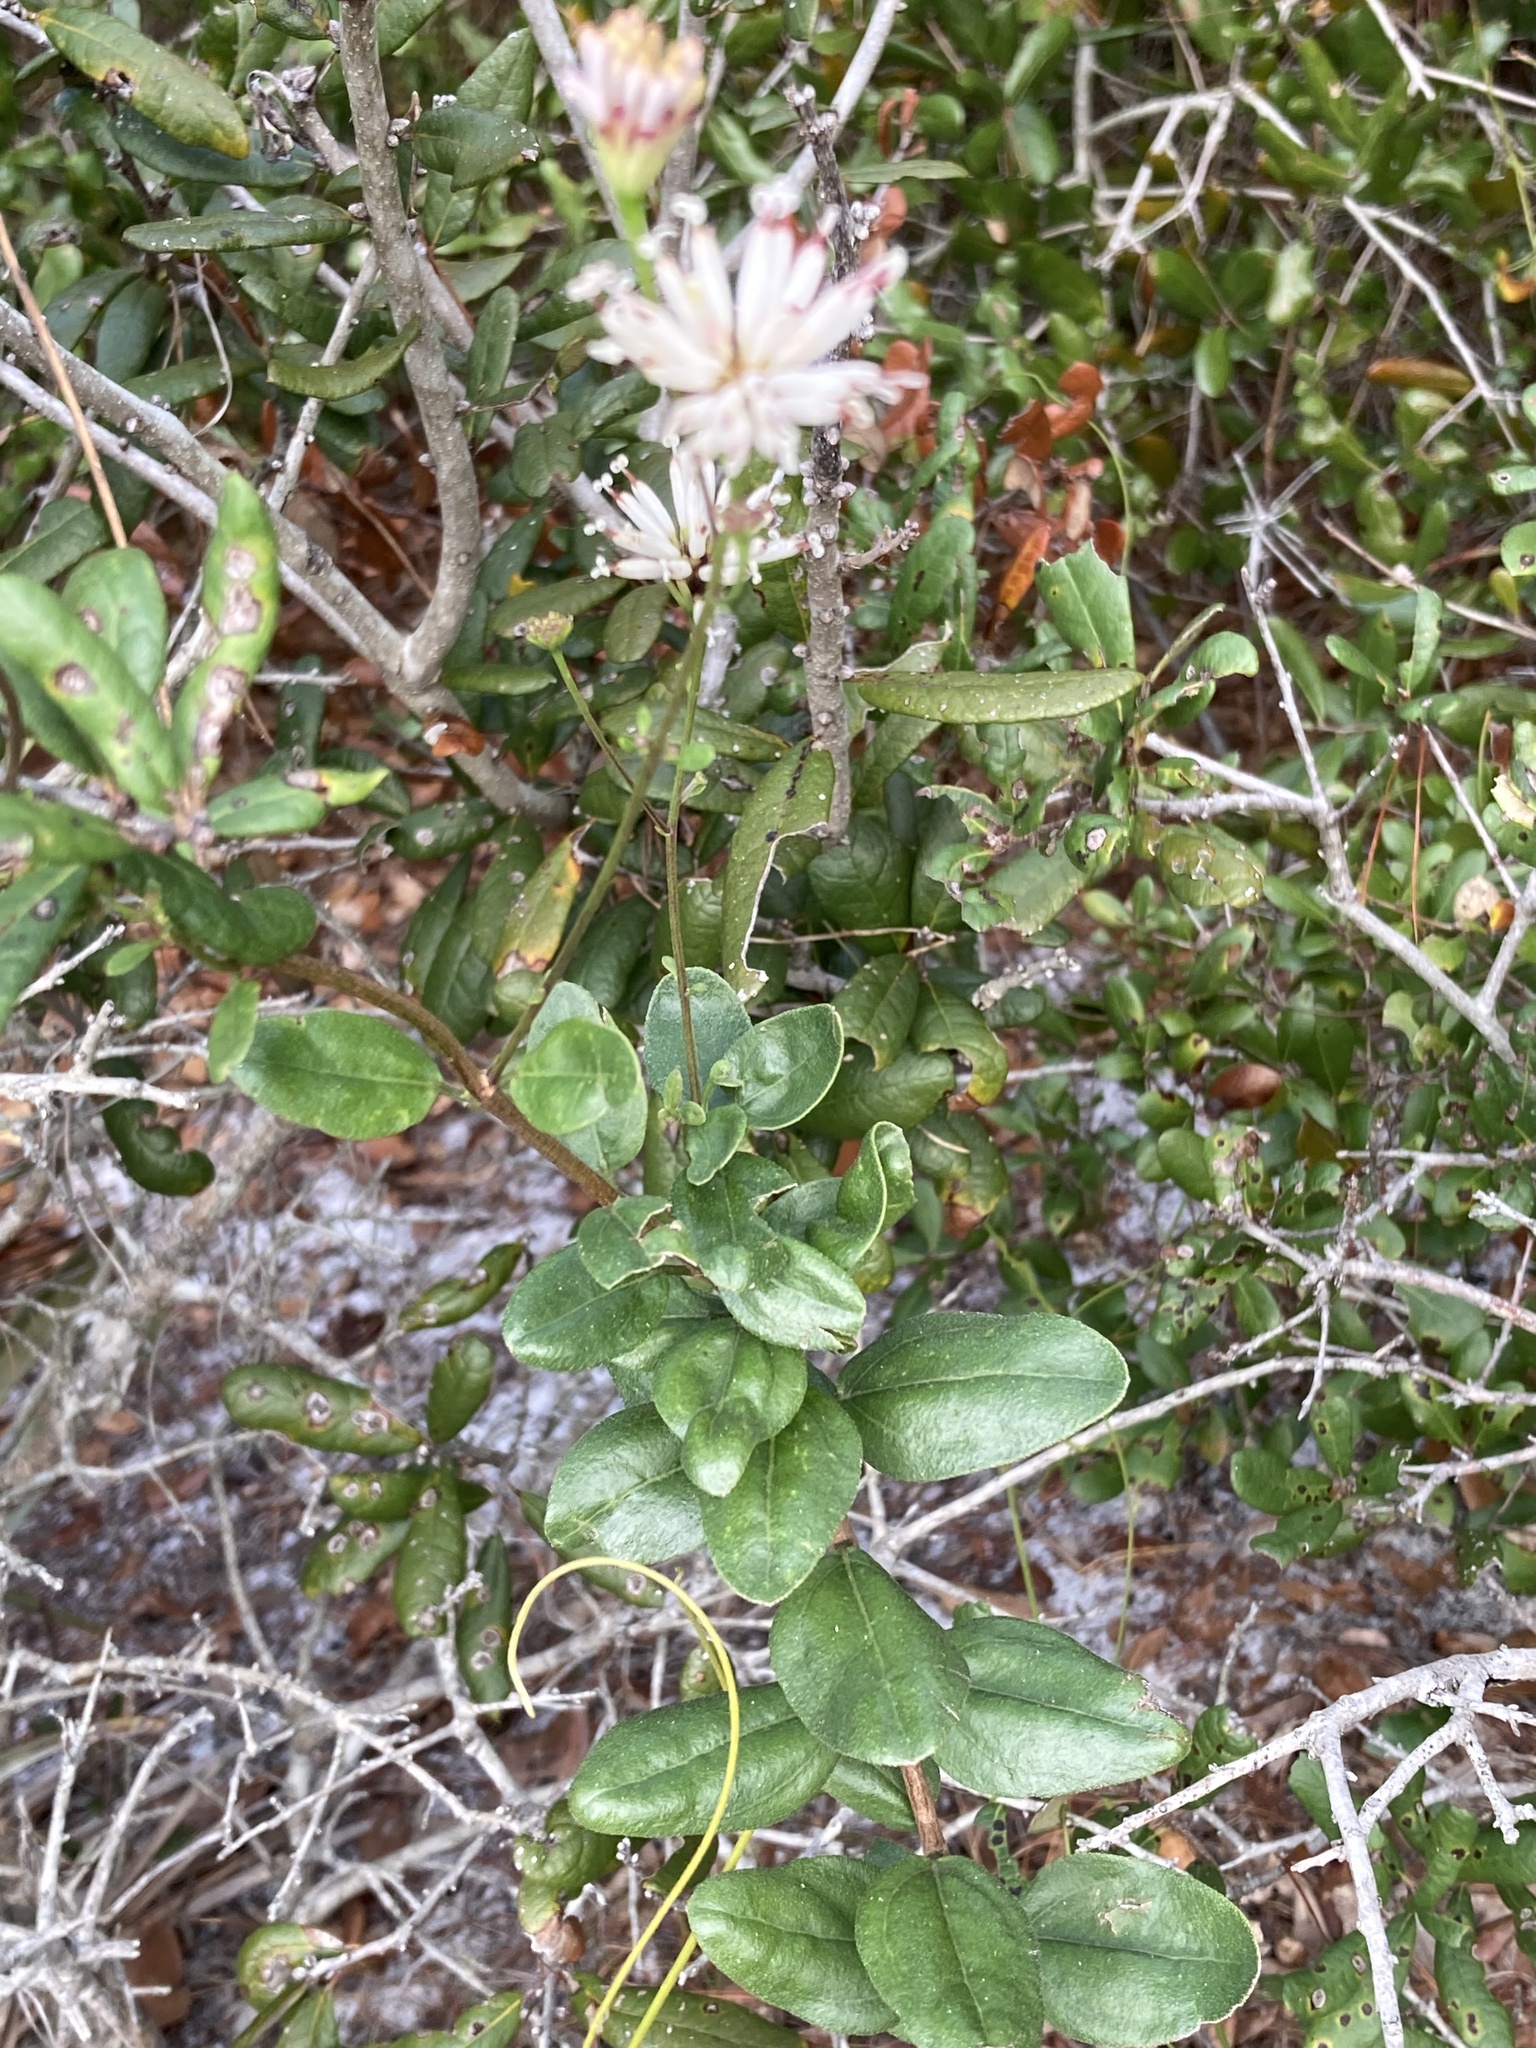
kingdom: Plantae
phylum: Tracheophyta
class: Magnoliopsida
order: Asterales
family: Asteraceae
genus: Palafoxia
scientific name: Palafoxia feayi
